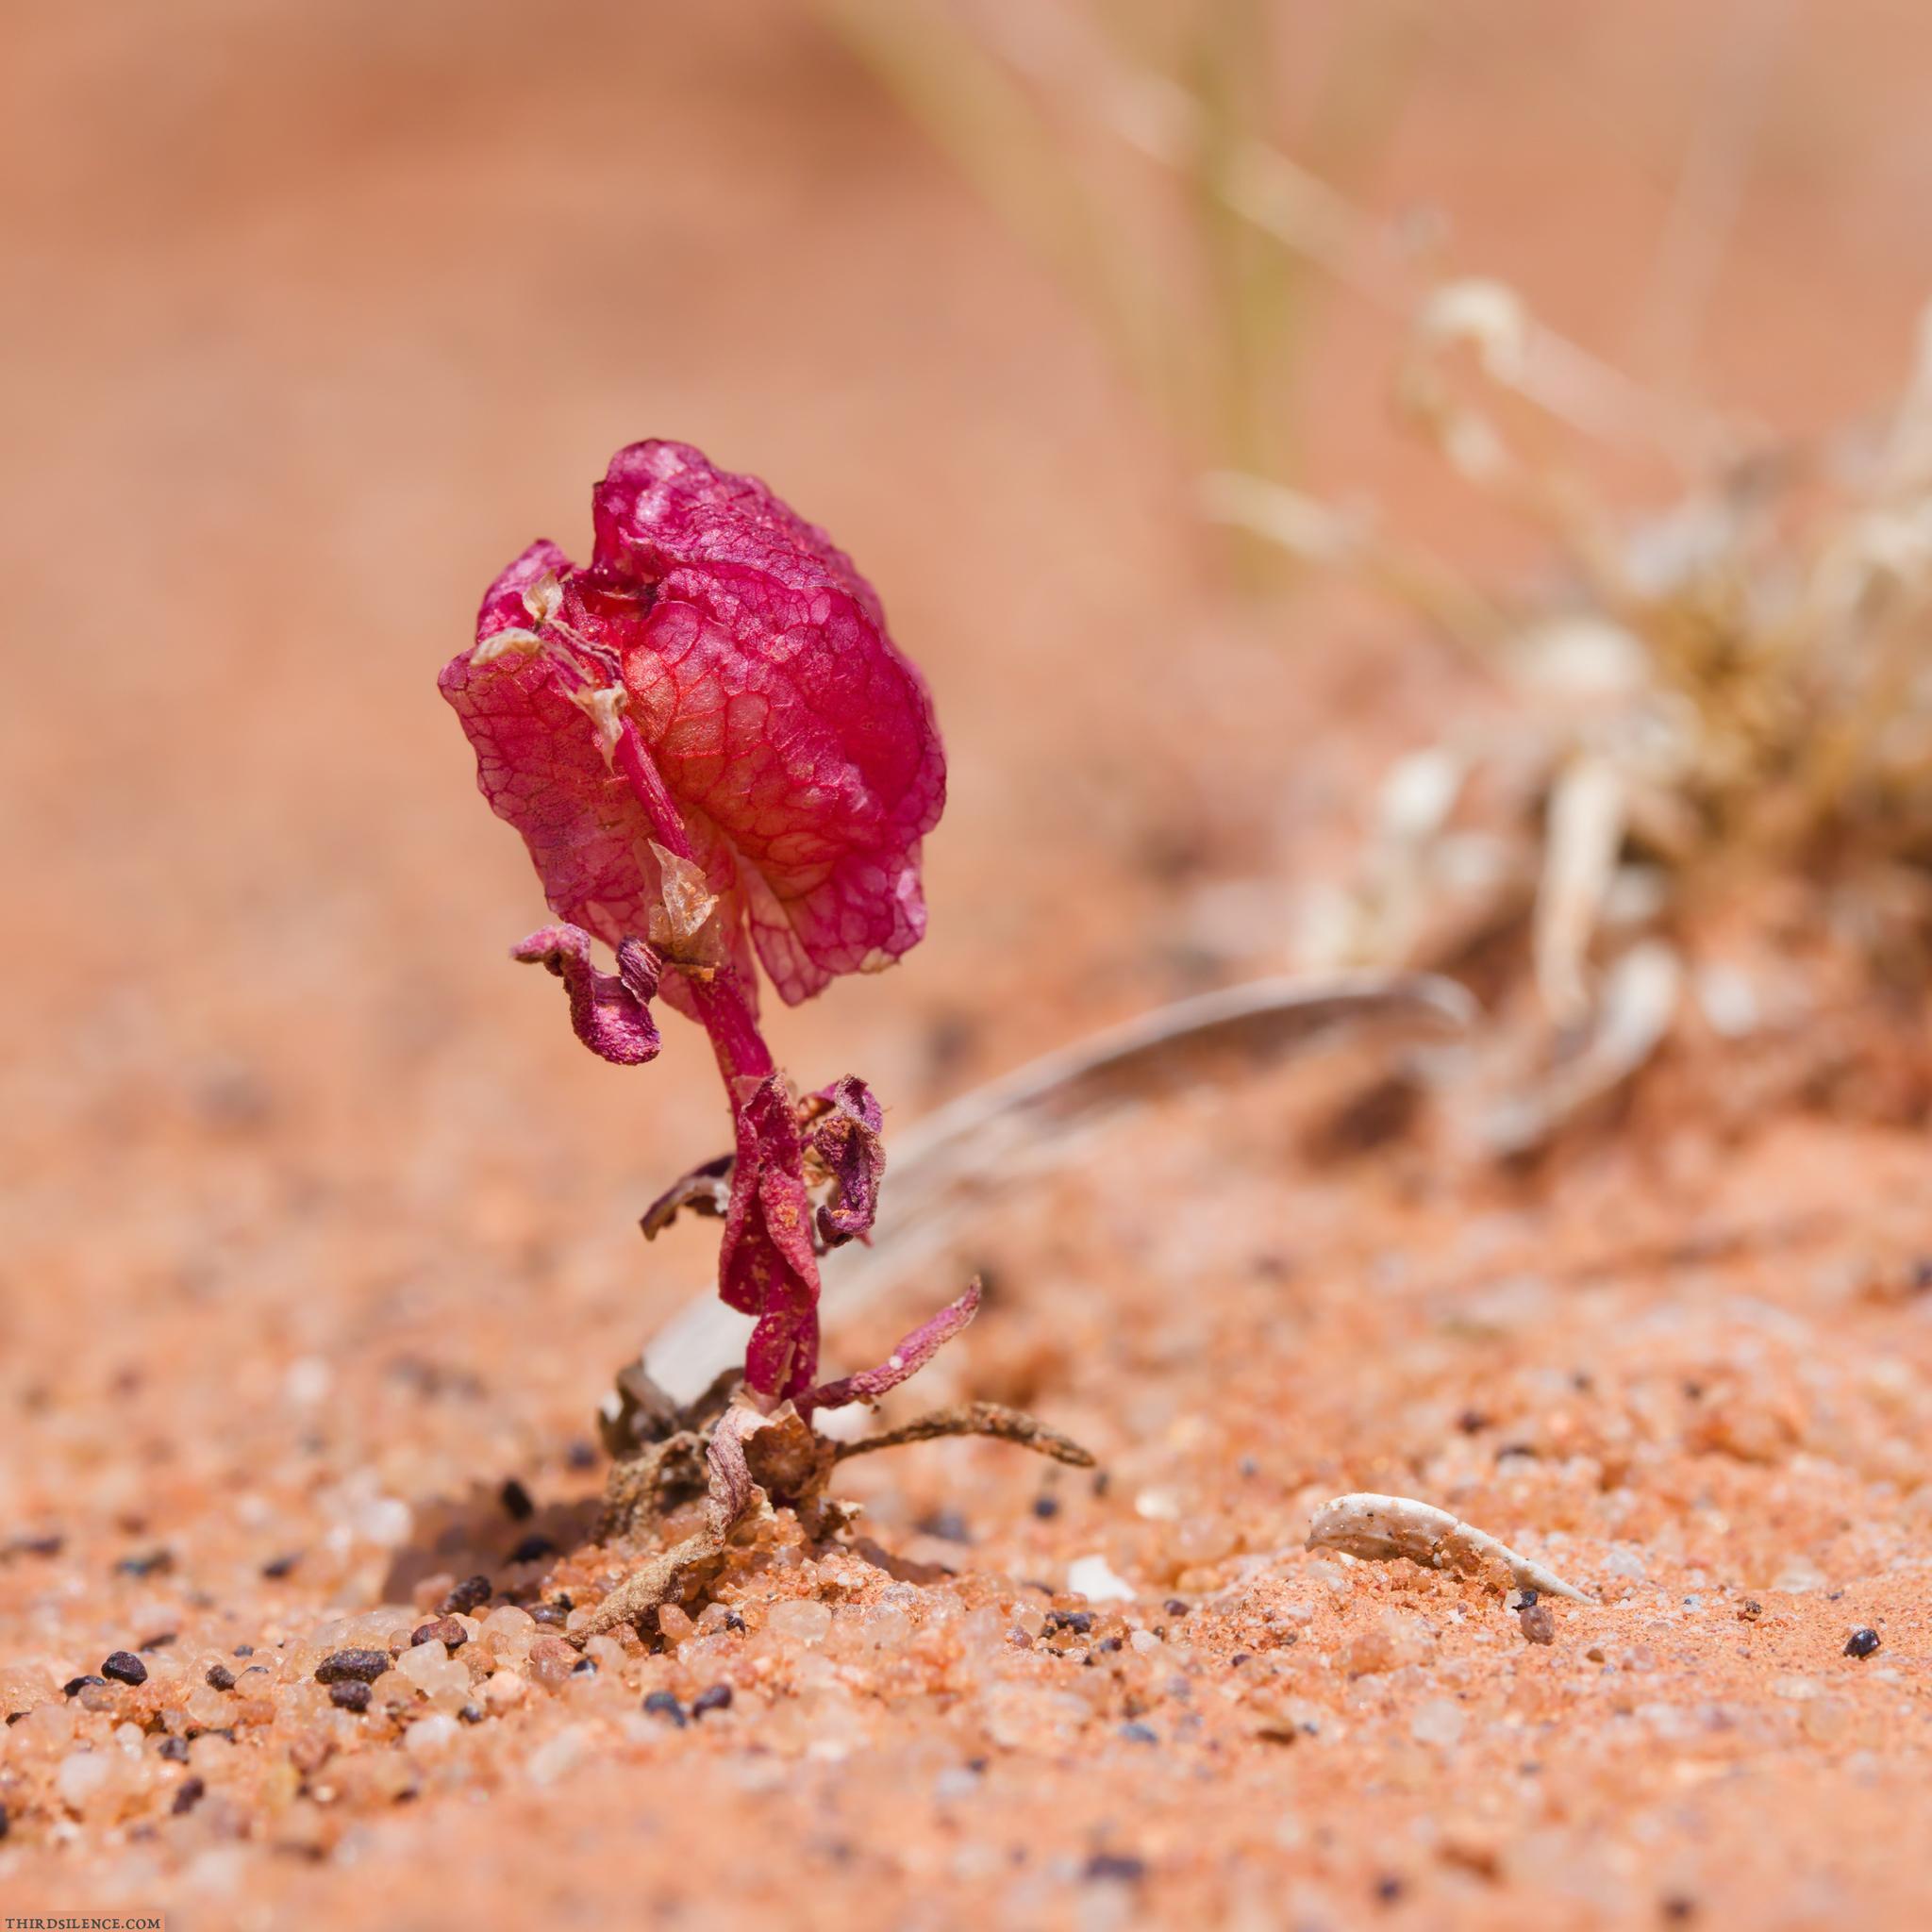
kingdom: Plantae
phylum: Tracheophyta
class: Magnoliopsida
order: Caryophyllales
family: Polygonaceae
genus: Rumex
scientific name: Rumex vesicarius
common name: Bladder dock
